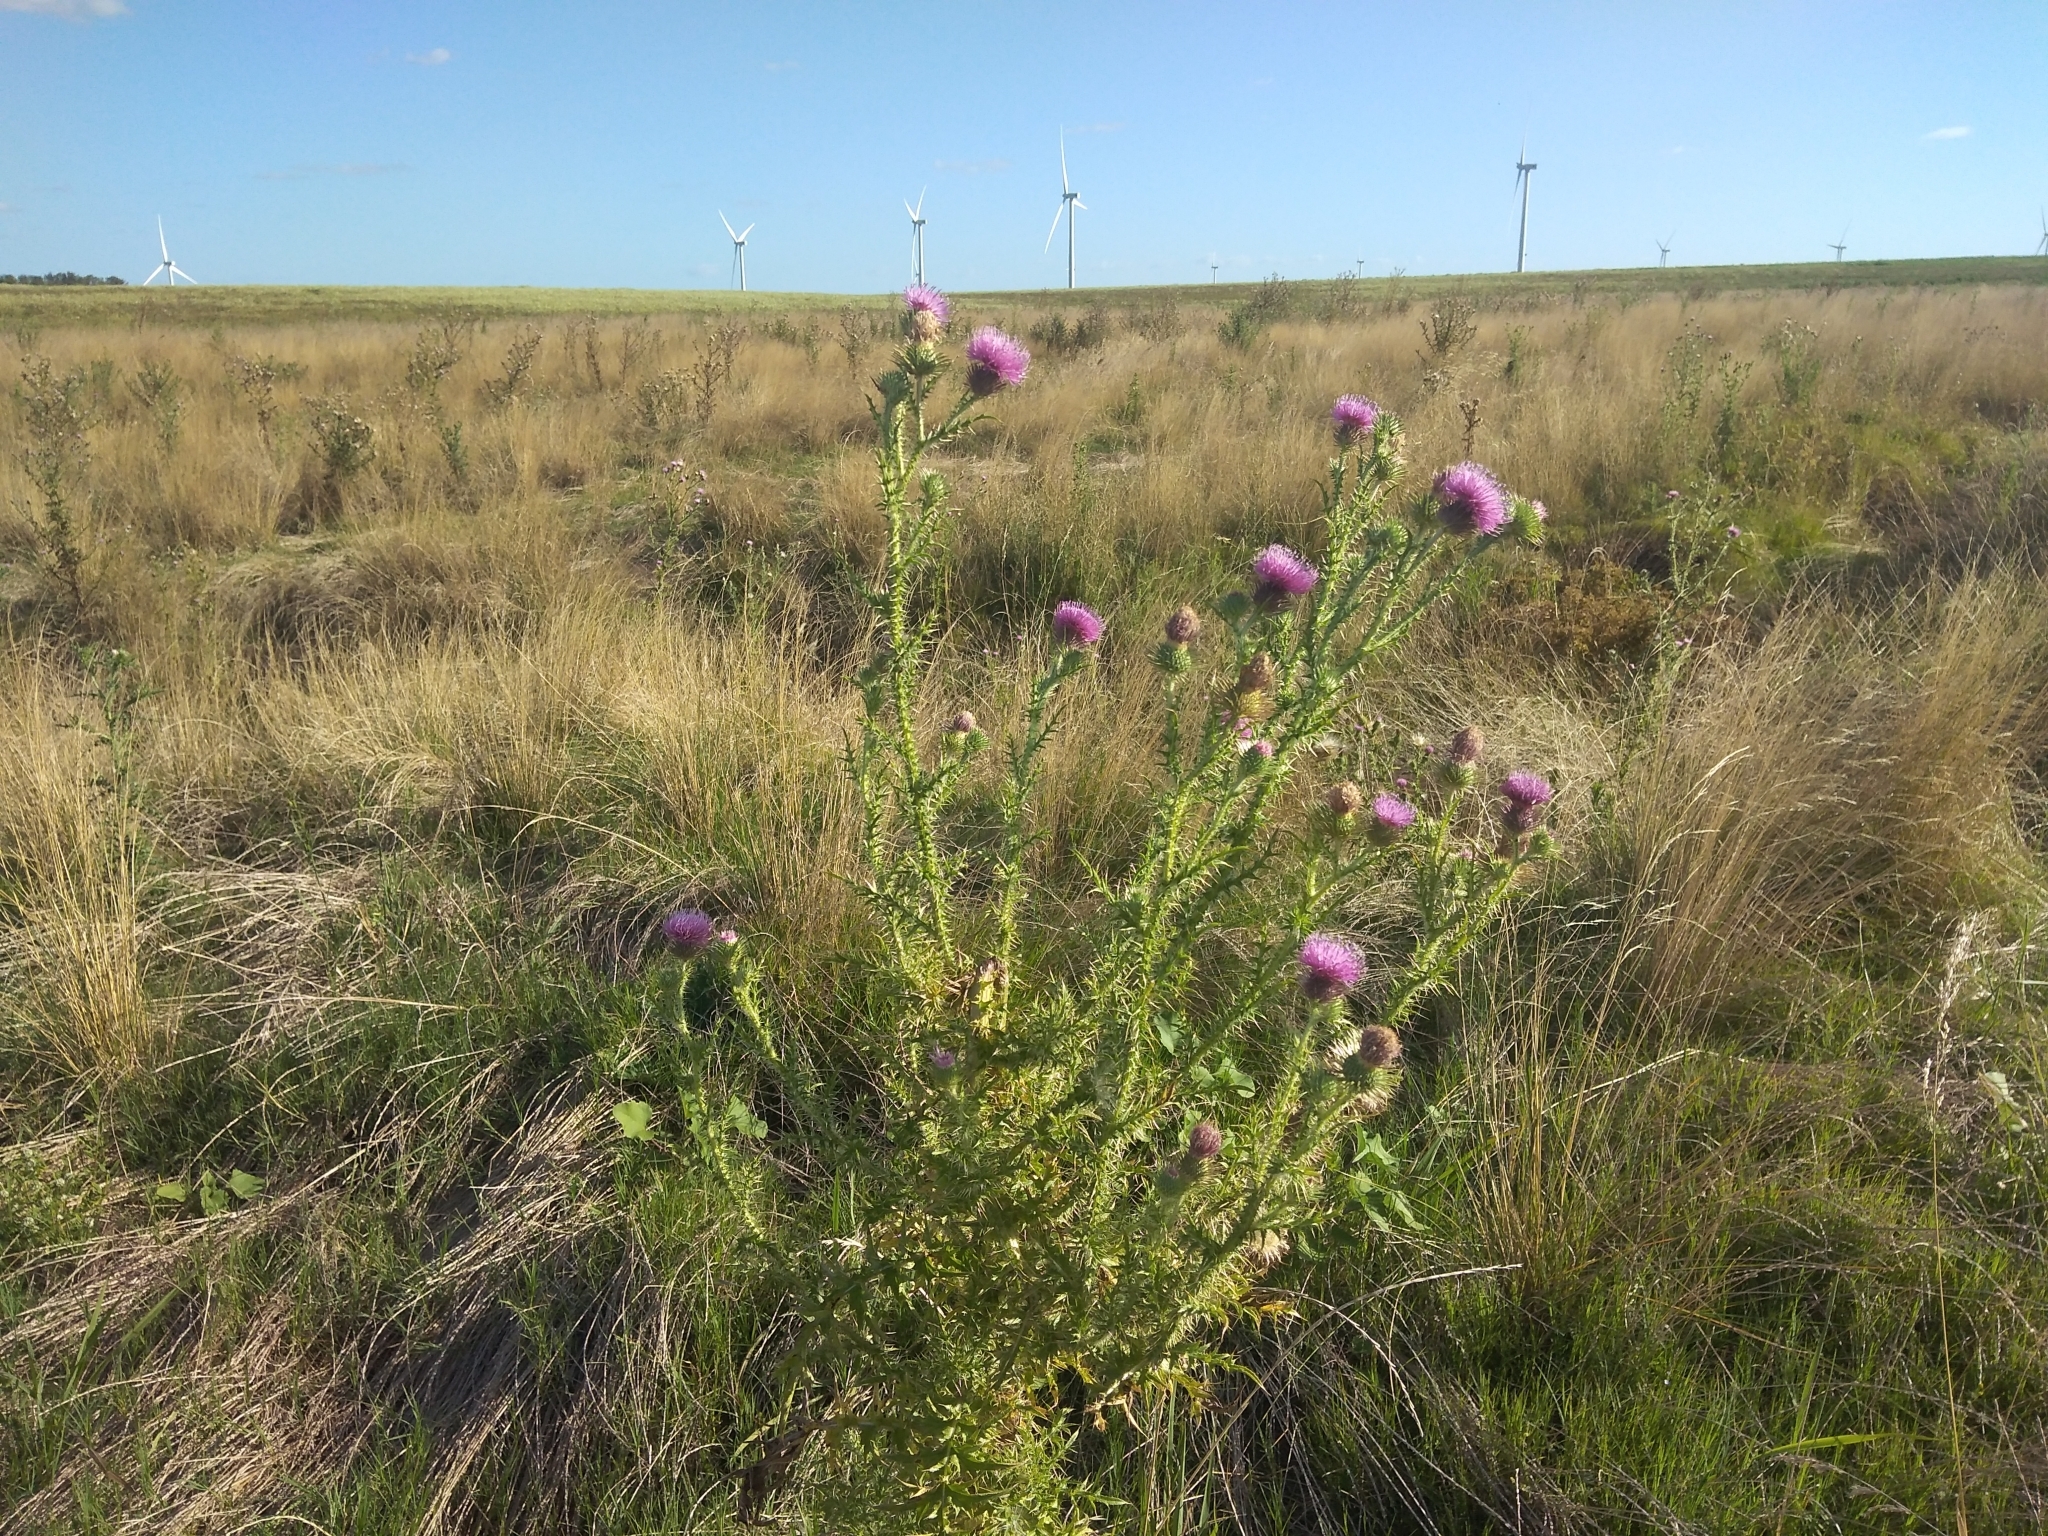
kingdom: Plantae
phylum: Tracheophyta
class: Magnoliopsida
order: Asterales
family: Asteraceae
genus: Carduus
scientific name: Carduus acanthoides
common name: Plumeless thistle
